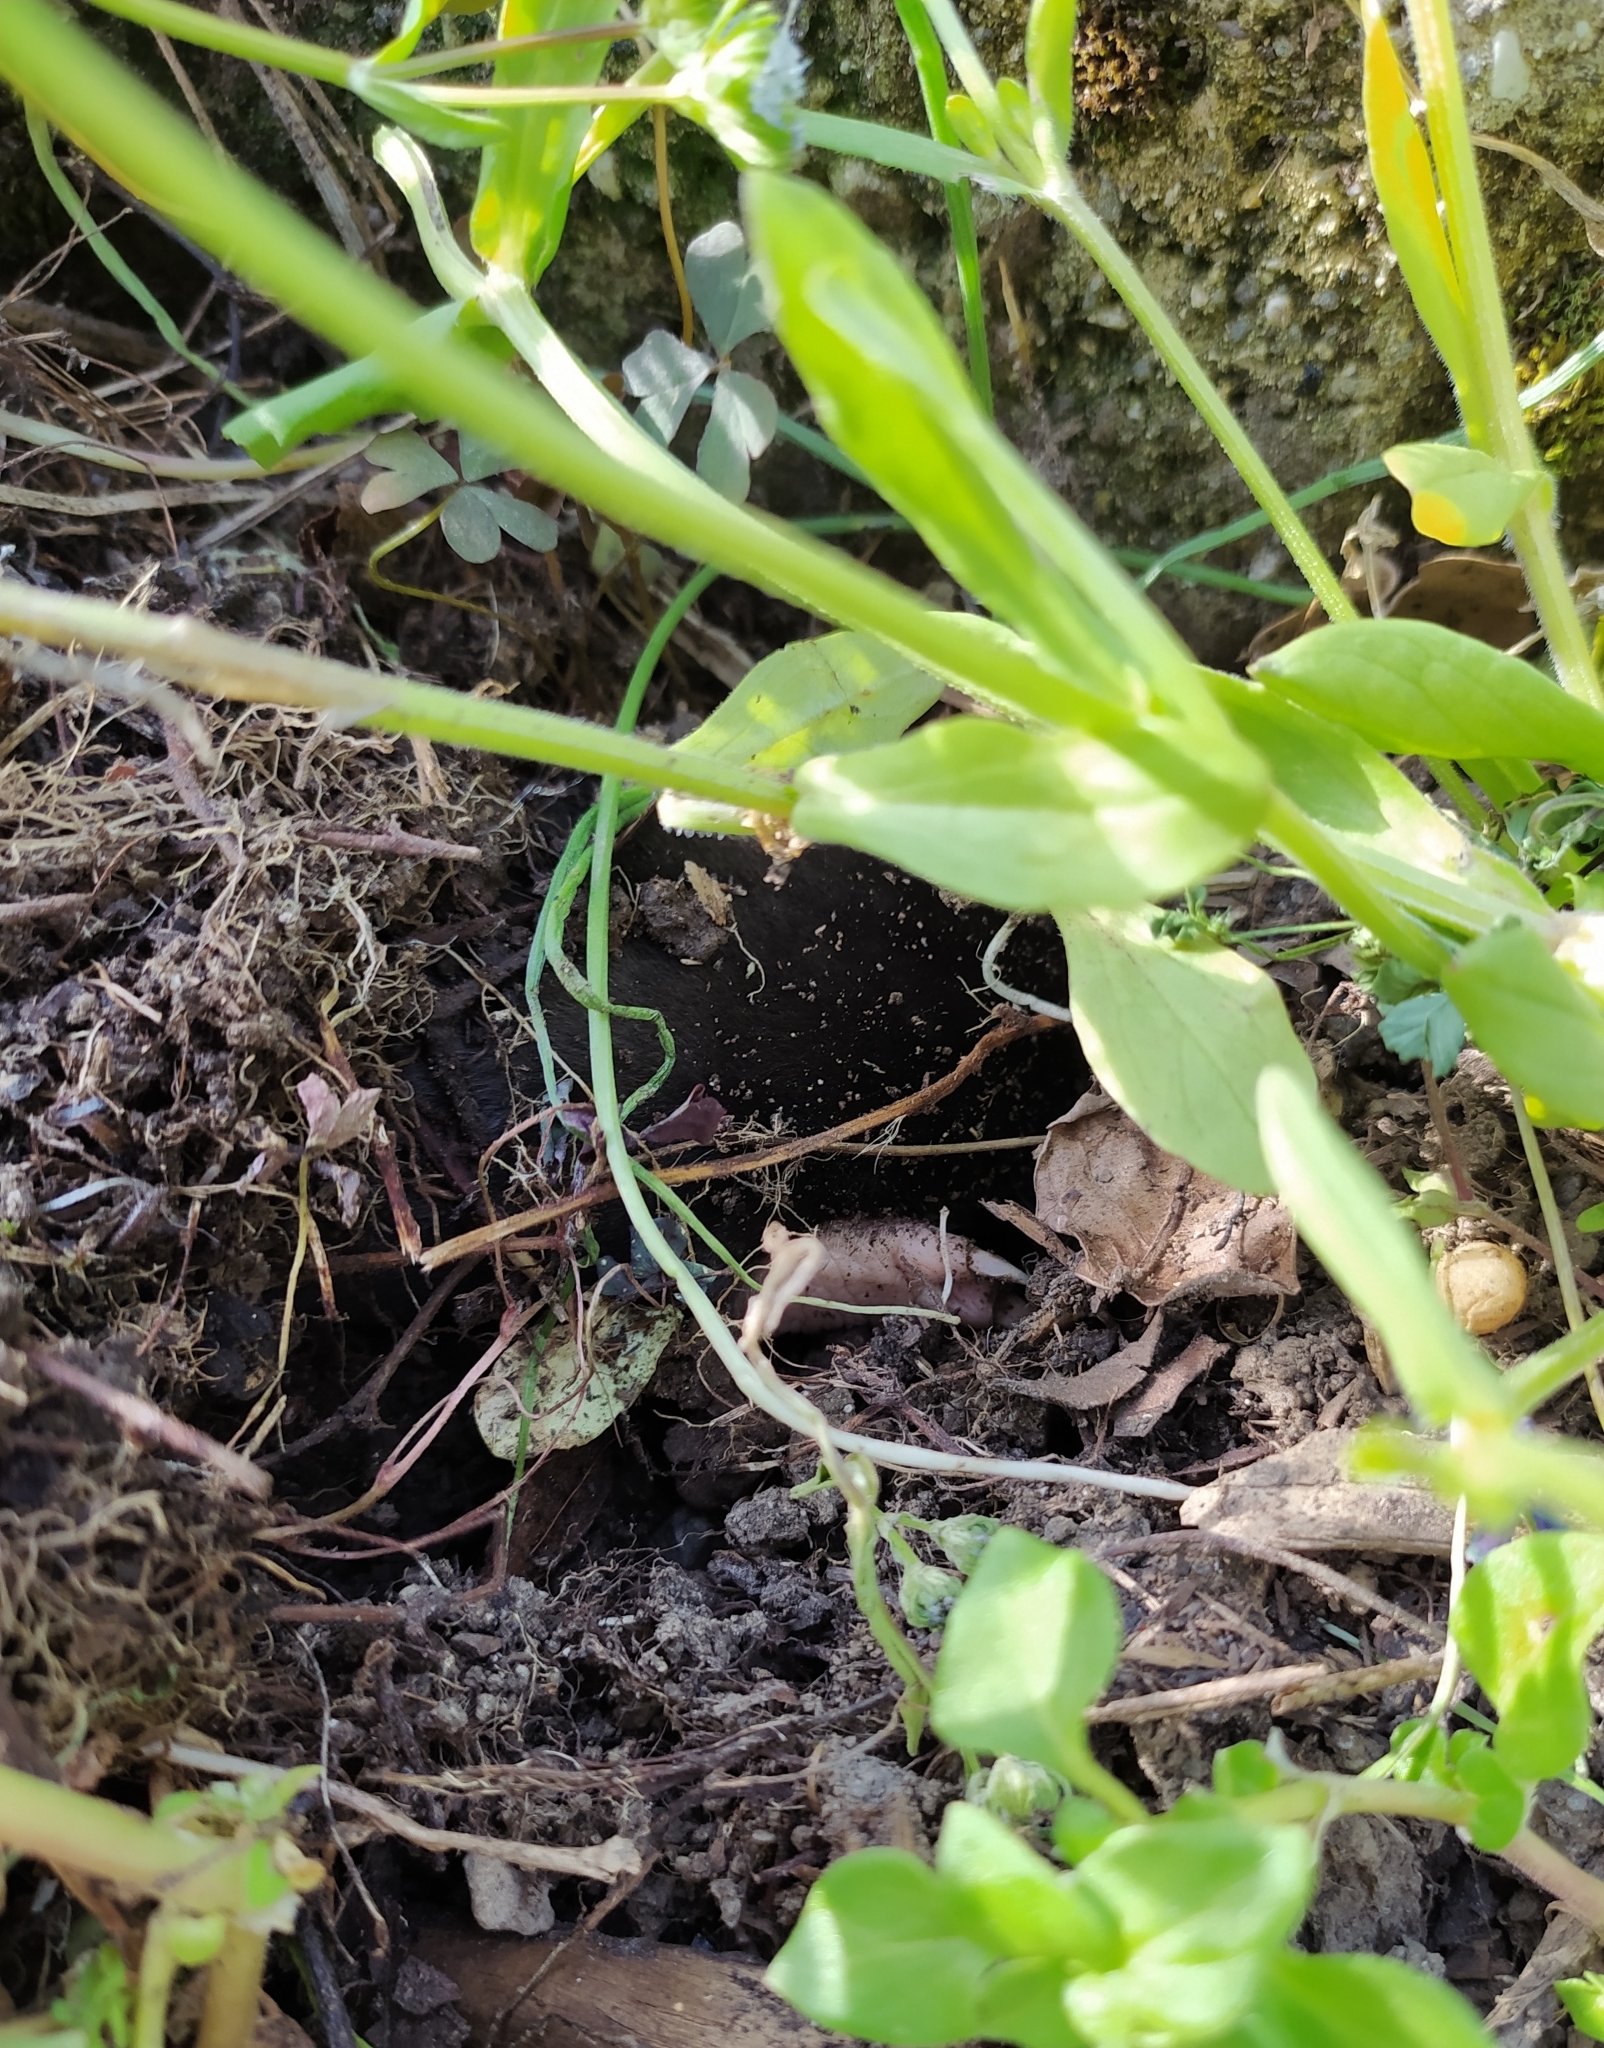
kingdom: Animalia
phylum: Chordata
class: Mammalia
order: Soricomorpha
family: Talpidae
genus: Talpa
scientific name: Talpa
